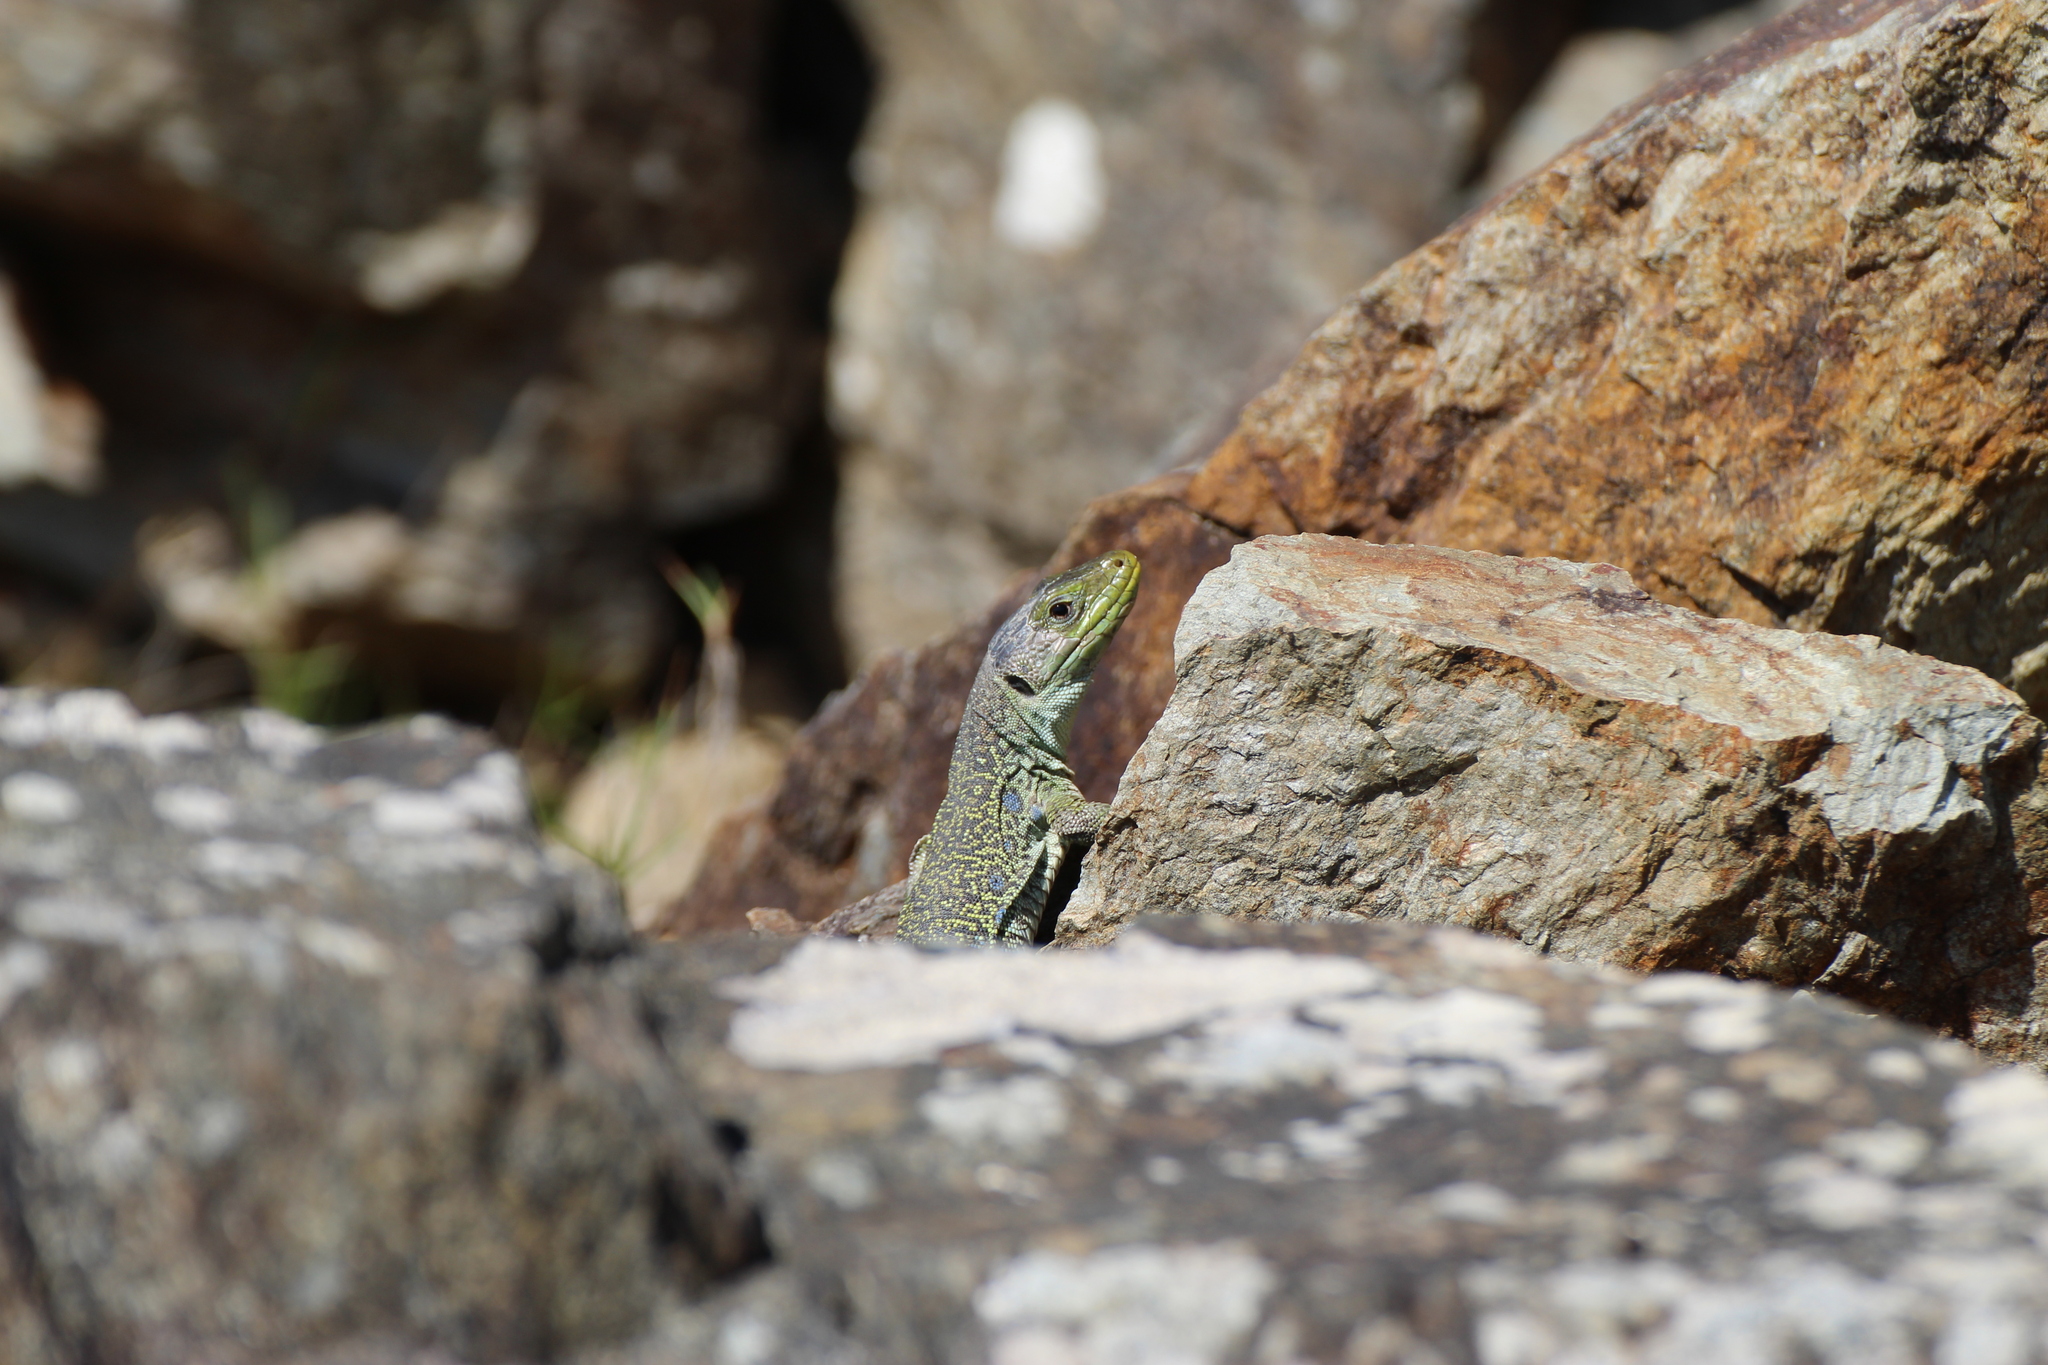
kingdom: Animalia
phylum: Chordata
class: Squamata
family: Lacertidae
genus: Timon
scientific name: Timon lepidus
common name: Ocellated lizard
